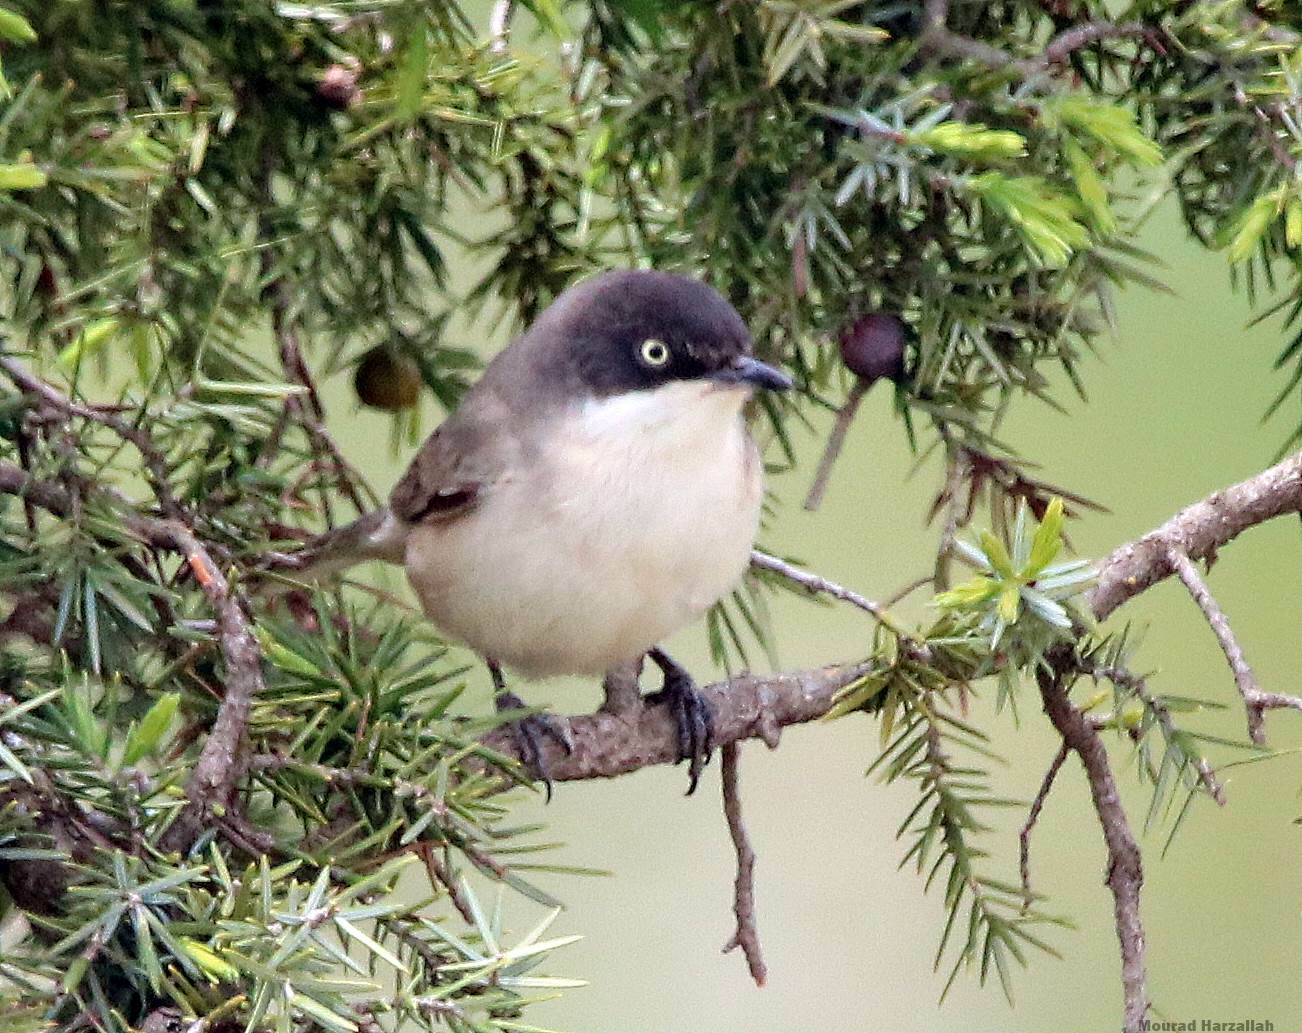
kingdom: Animalia
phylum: Chordata
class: Aves
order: Passeriformes
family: Sylviidae
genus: Sylvia
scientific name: Sylvia hortensis
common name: Orphean warbler
